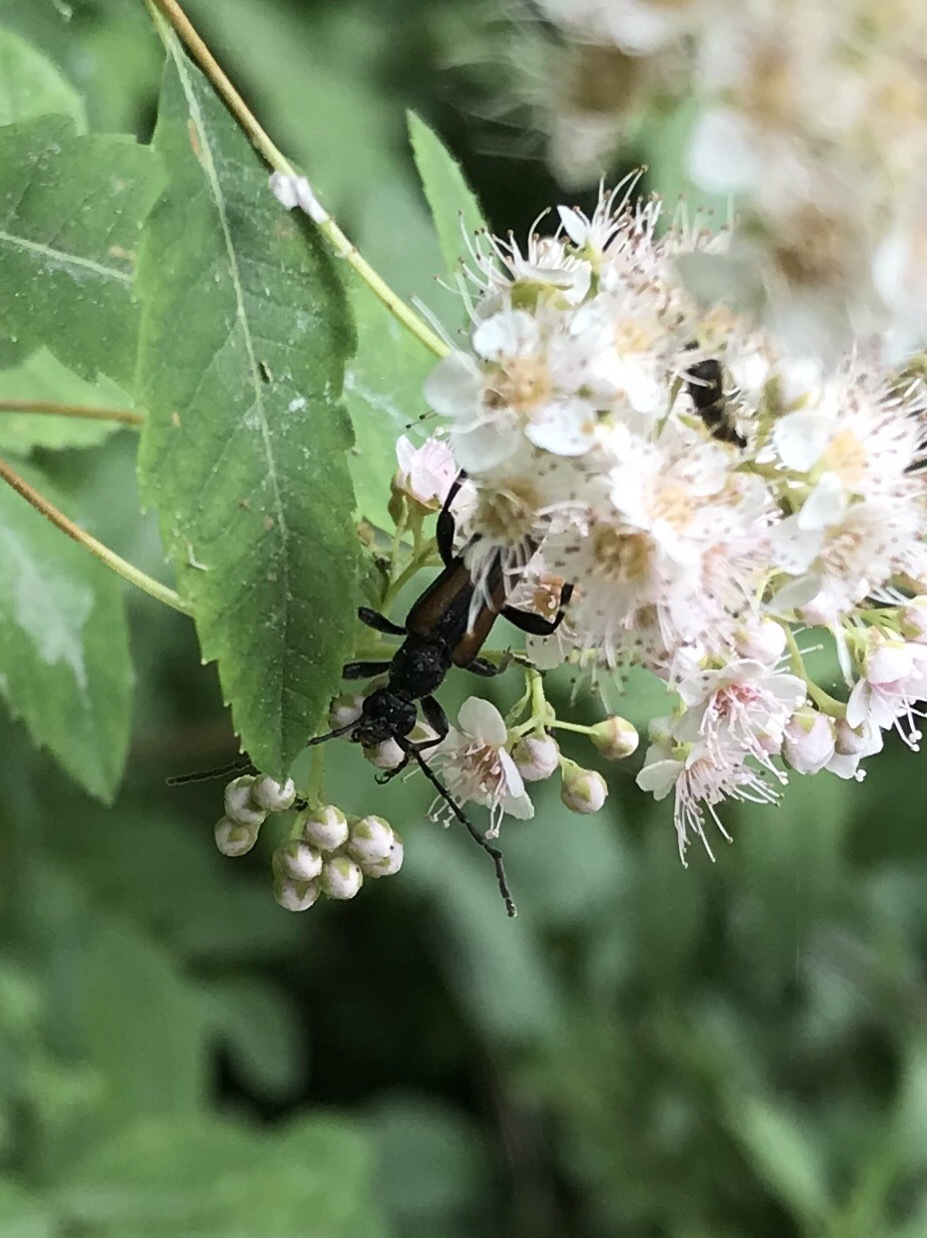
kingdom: Animalia
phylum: Arthropoda
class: Insecta
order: Coleoptera
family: Cerambycidae
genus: Strangalepta
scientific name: Strangalepta abbreviata
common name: Strangalepta flower longhorn beetle
